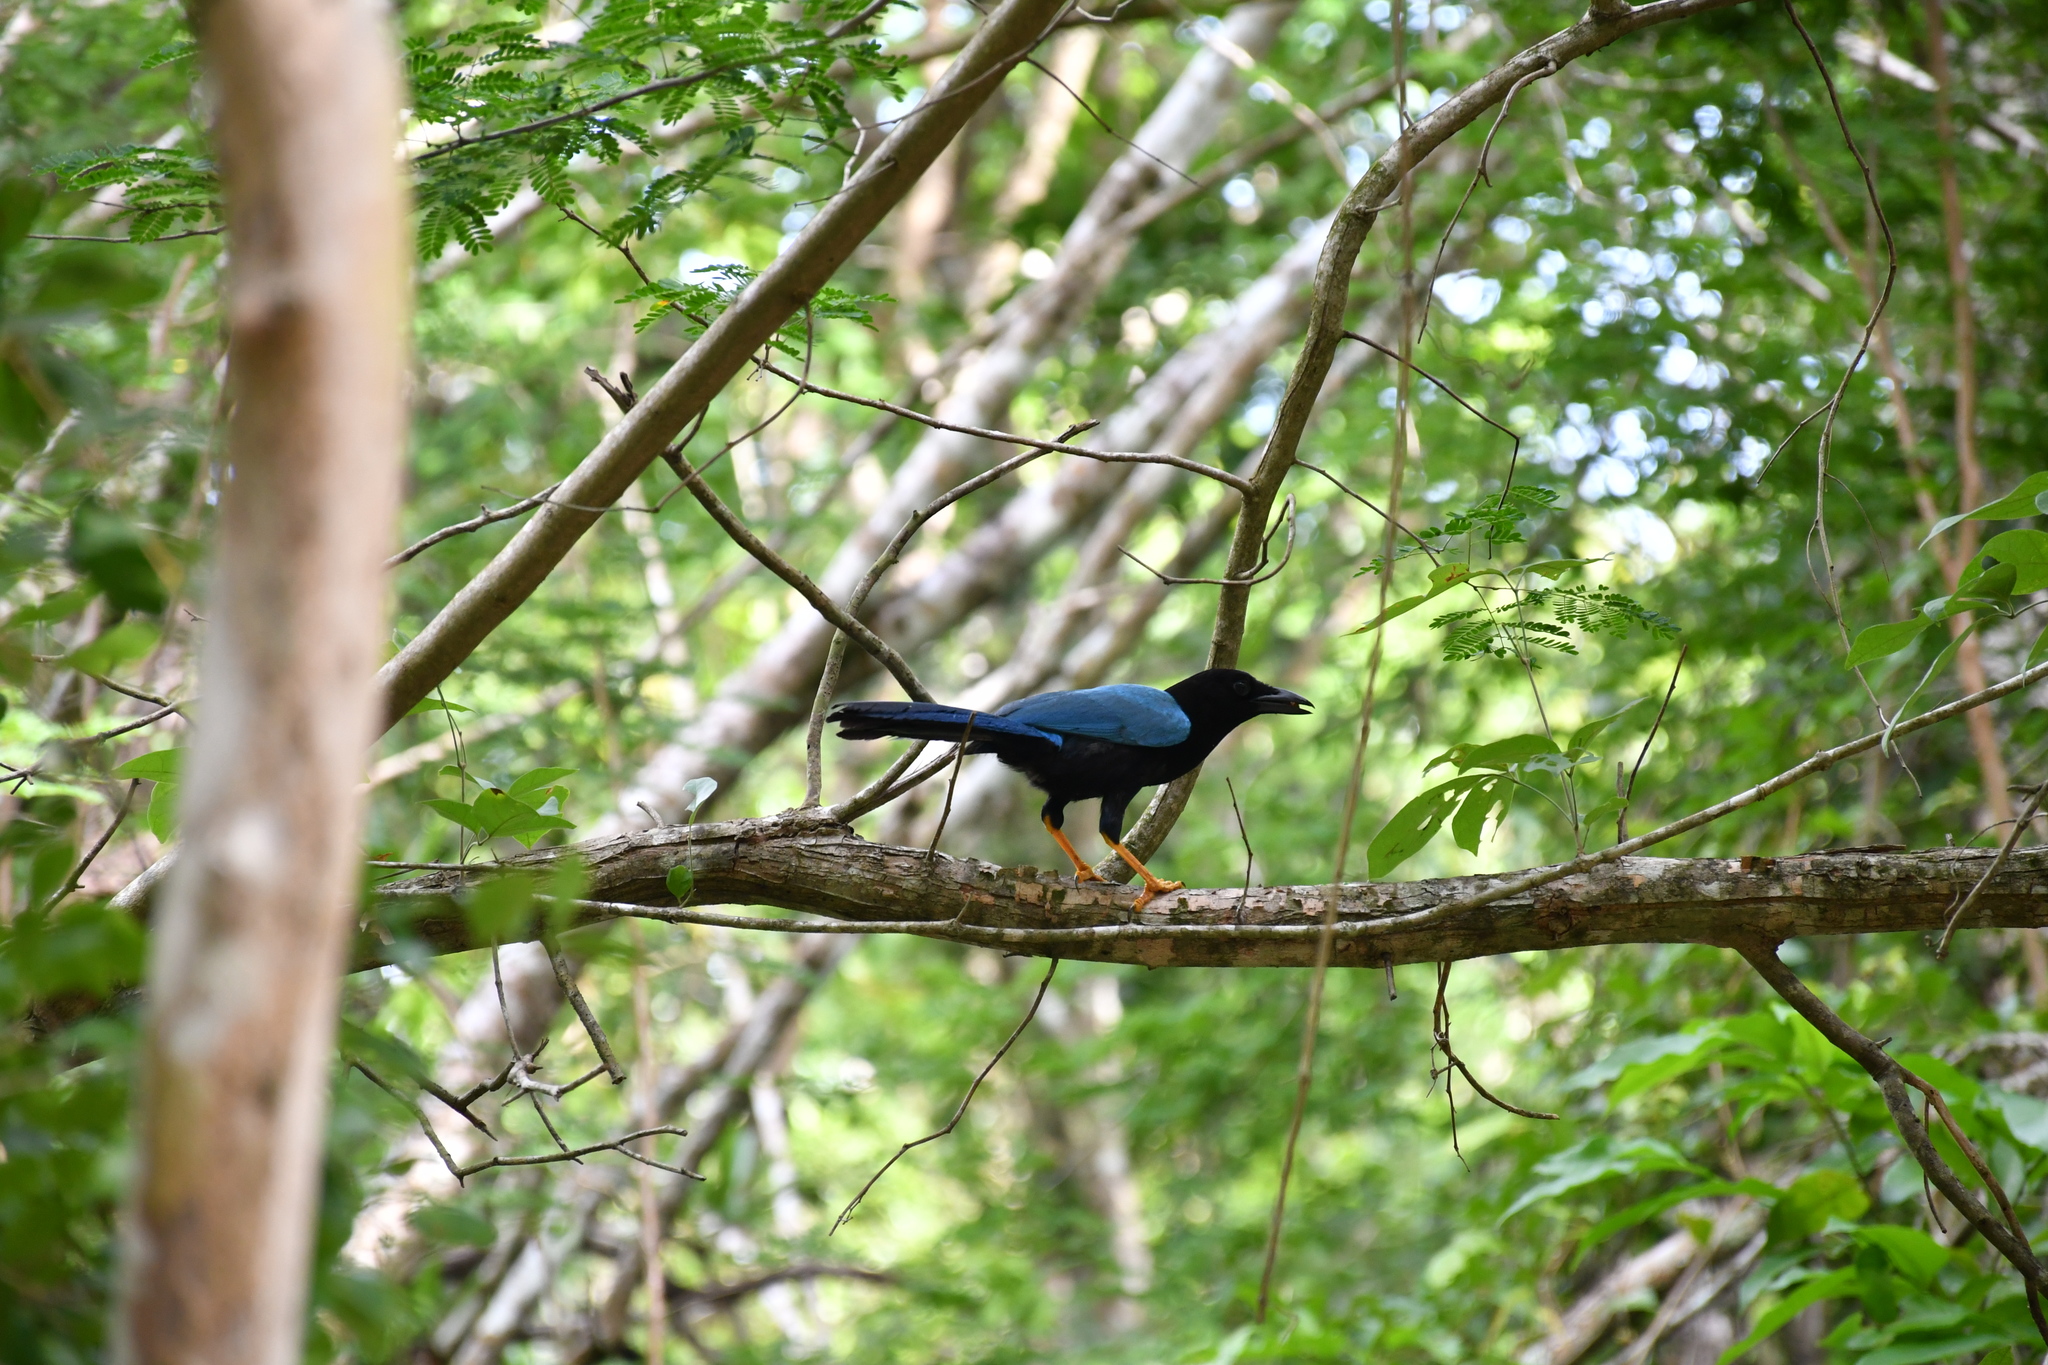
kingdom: Animalia
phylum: Chordata
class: Aves
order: Passeriformes
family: Corvidae
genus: Cyanocorax
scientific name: Cyanocorax yucatanicus
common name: Yucatan jay
